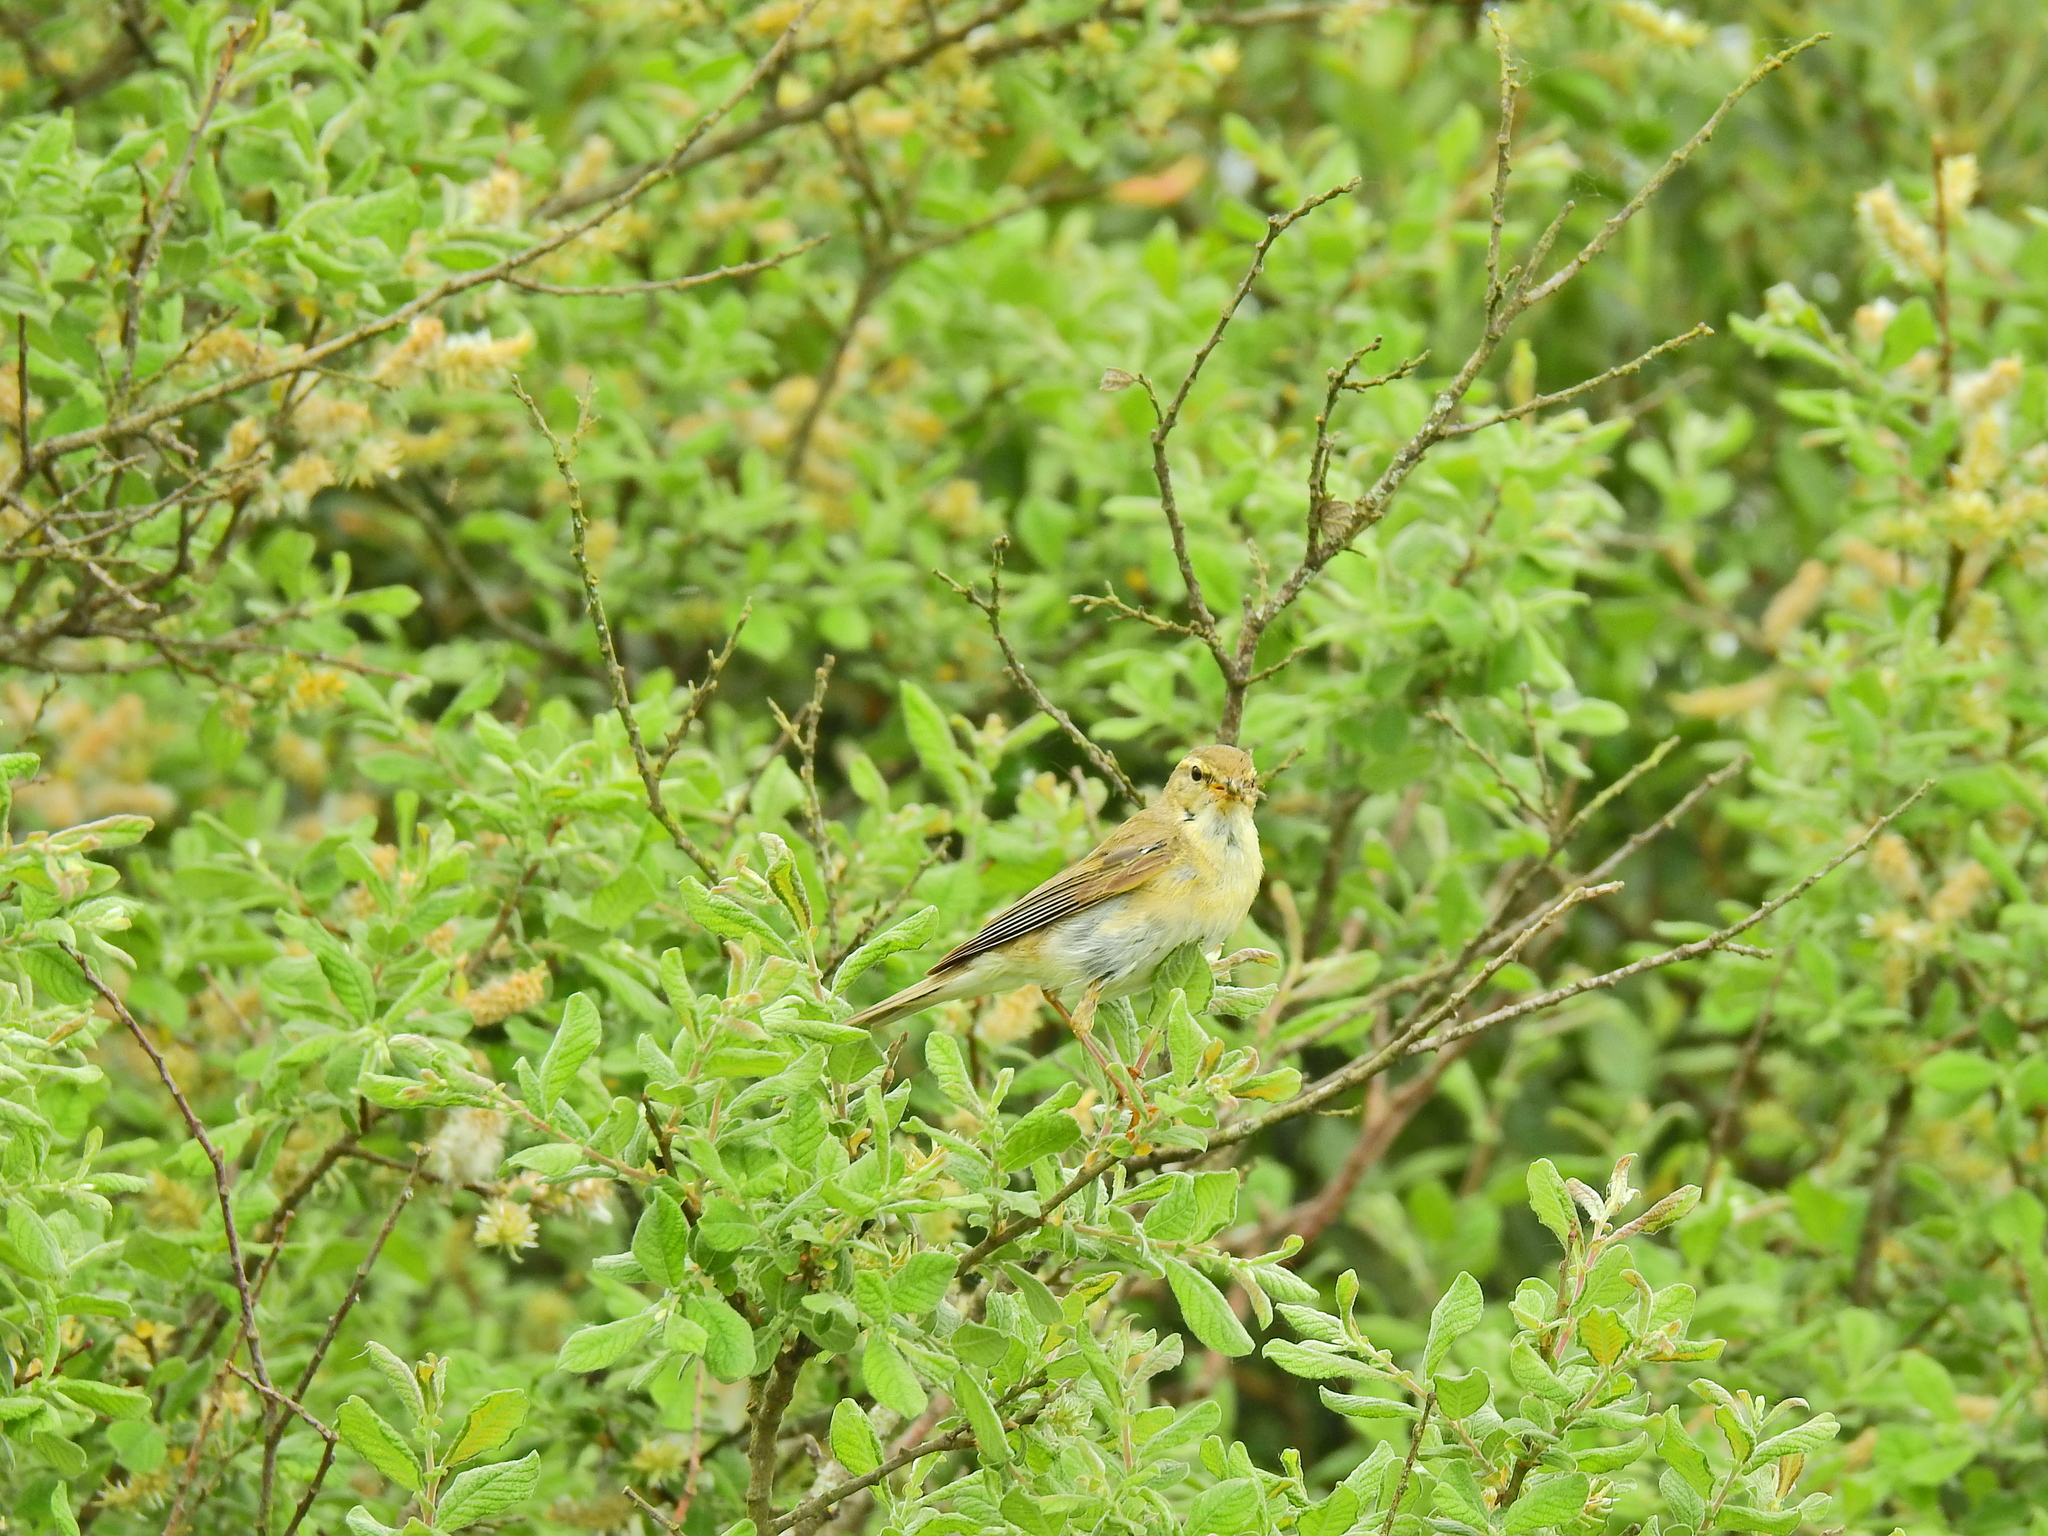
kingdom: Animalia
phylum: Chordata
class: Aves
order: Passeriformes
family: Phylloscopidae
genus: Phylloscopus
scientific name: Phylloscopus trochilus
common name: Willow warbler
